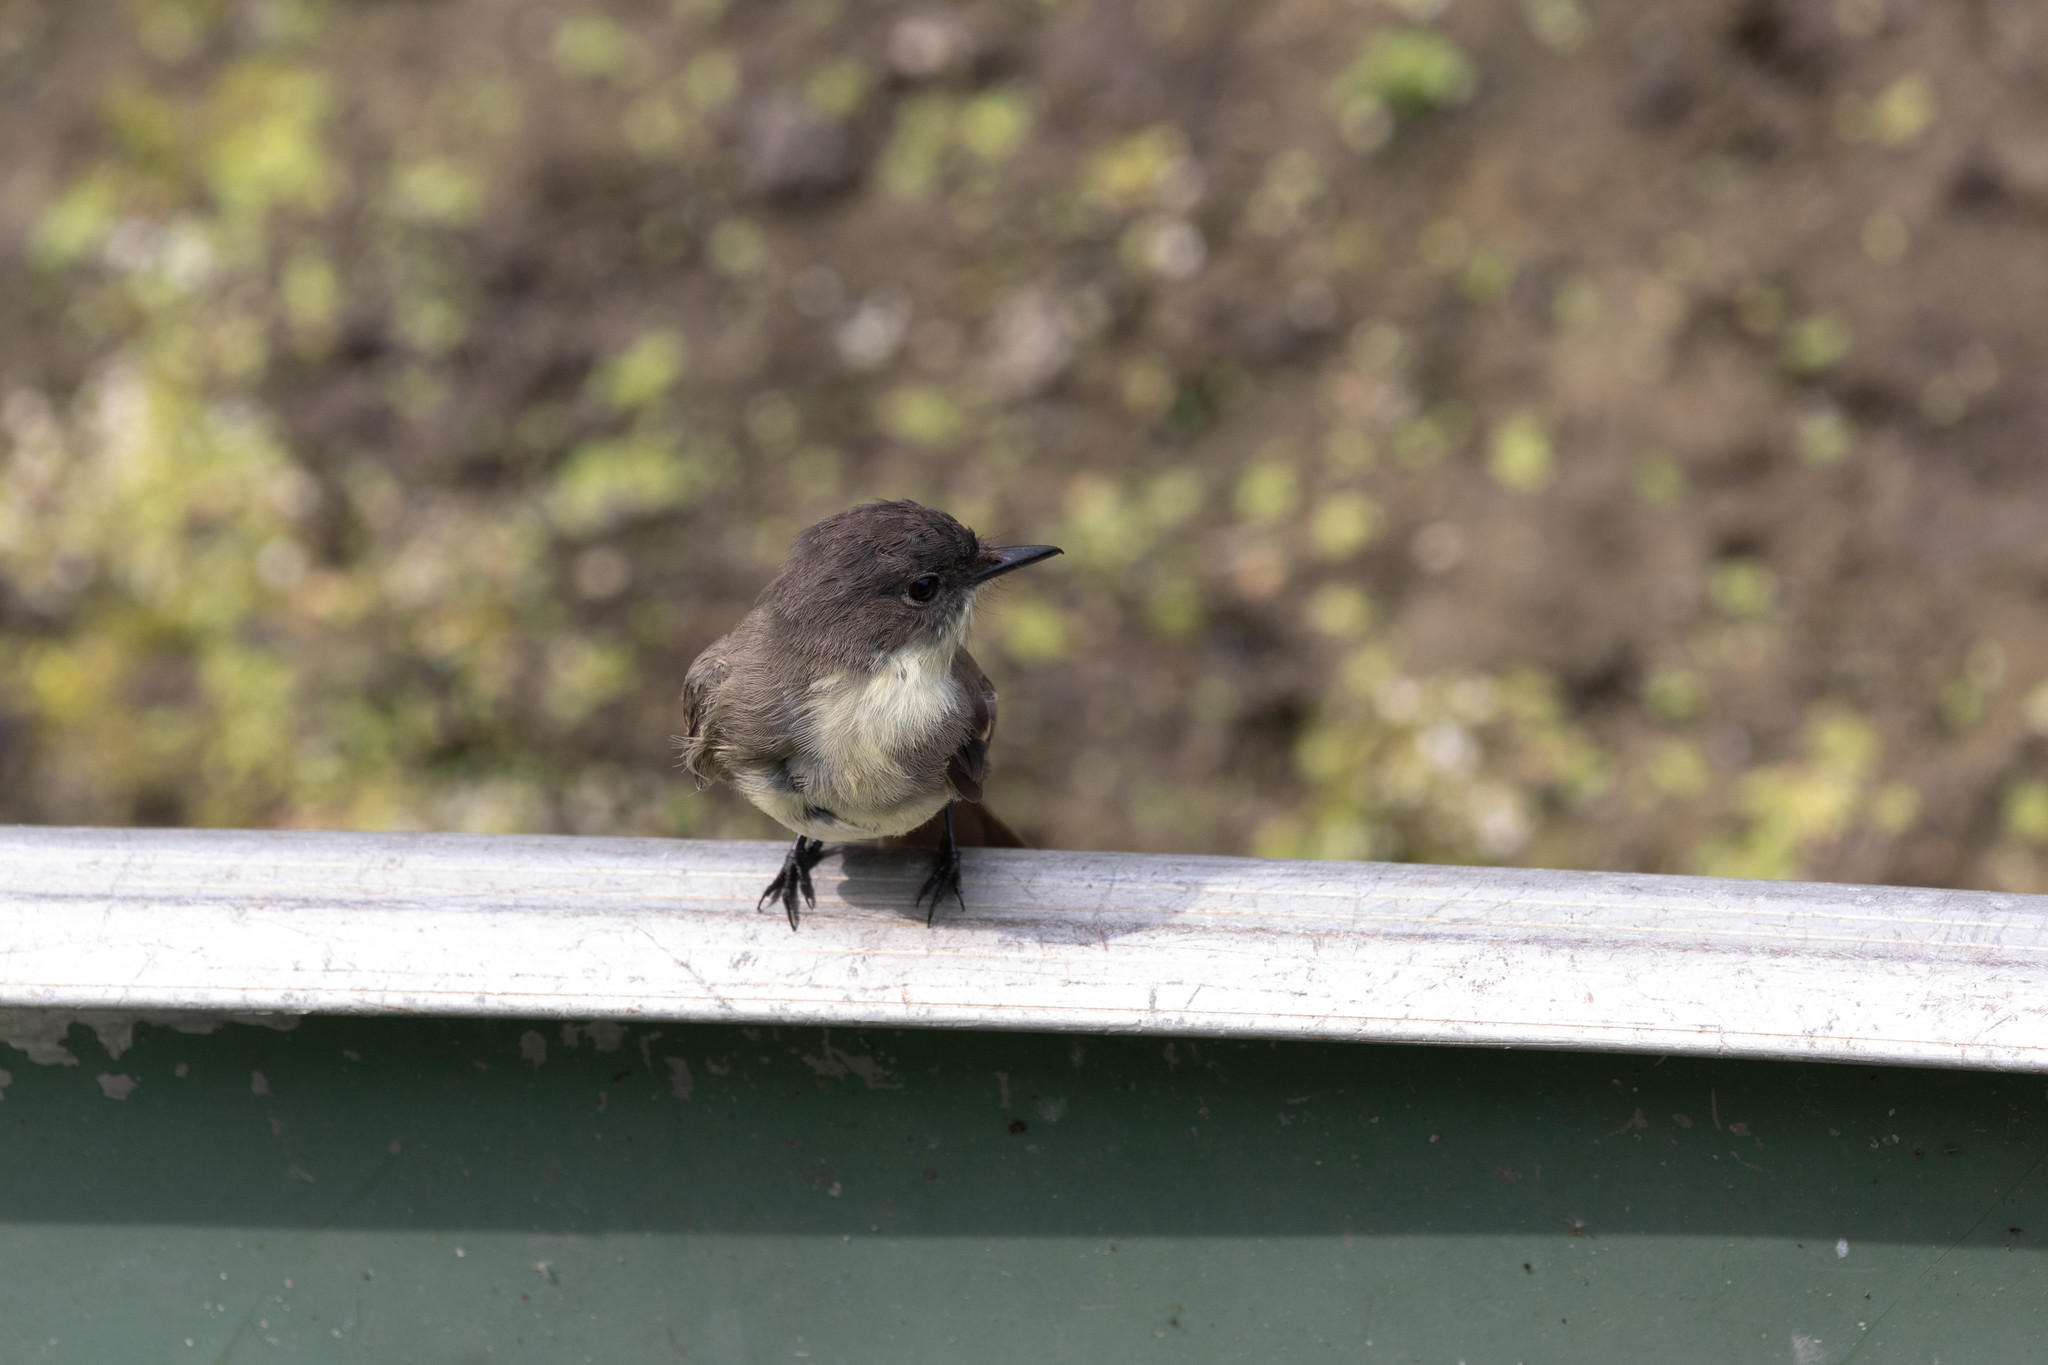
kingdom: Animalia
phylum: Chordata
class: Aves
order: Passeriformes
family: Tyrannidae
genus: Sayornis
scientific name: Sayornis phoebe
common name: Eastern phoebe
